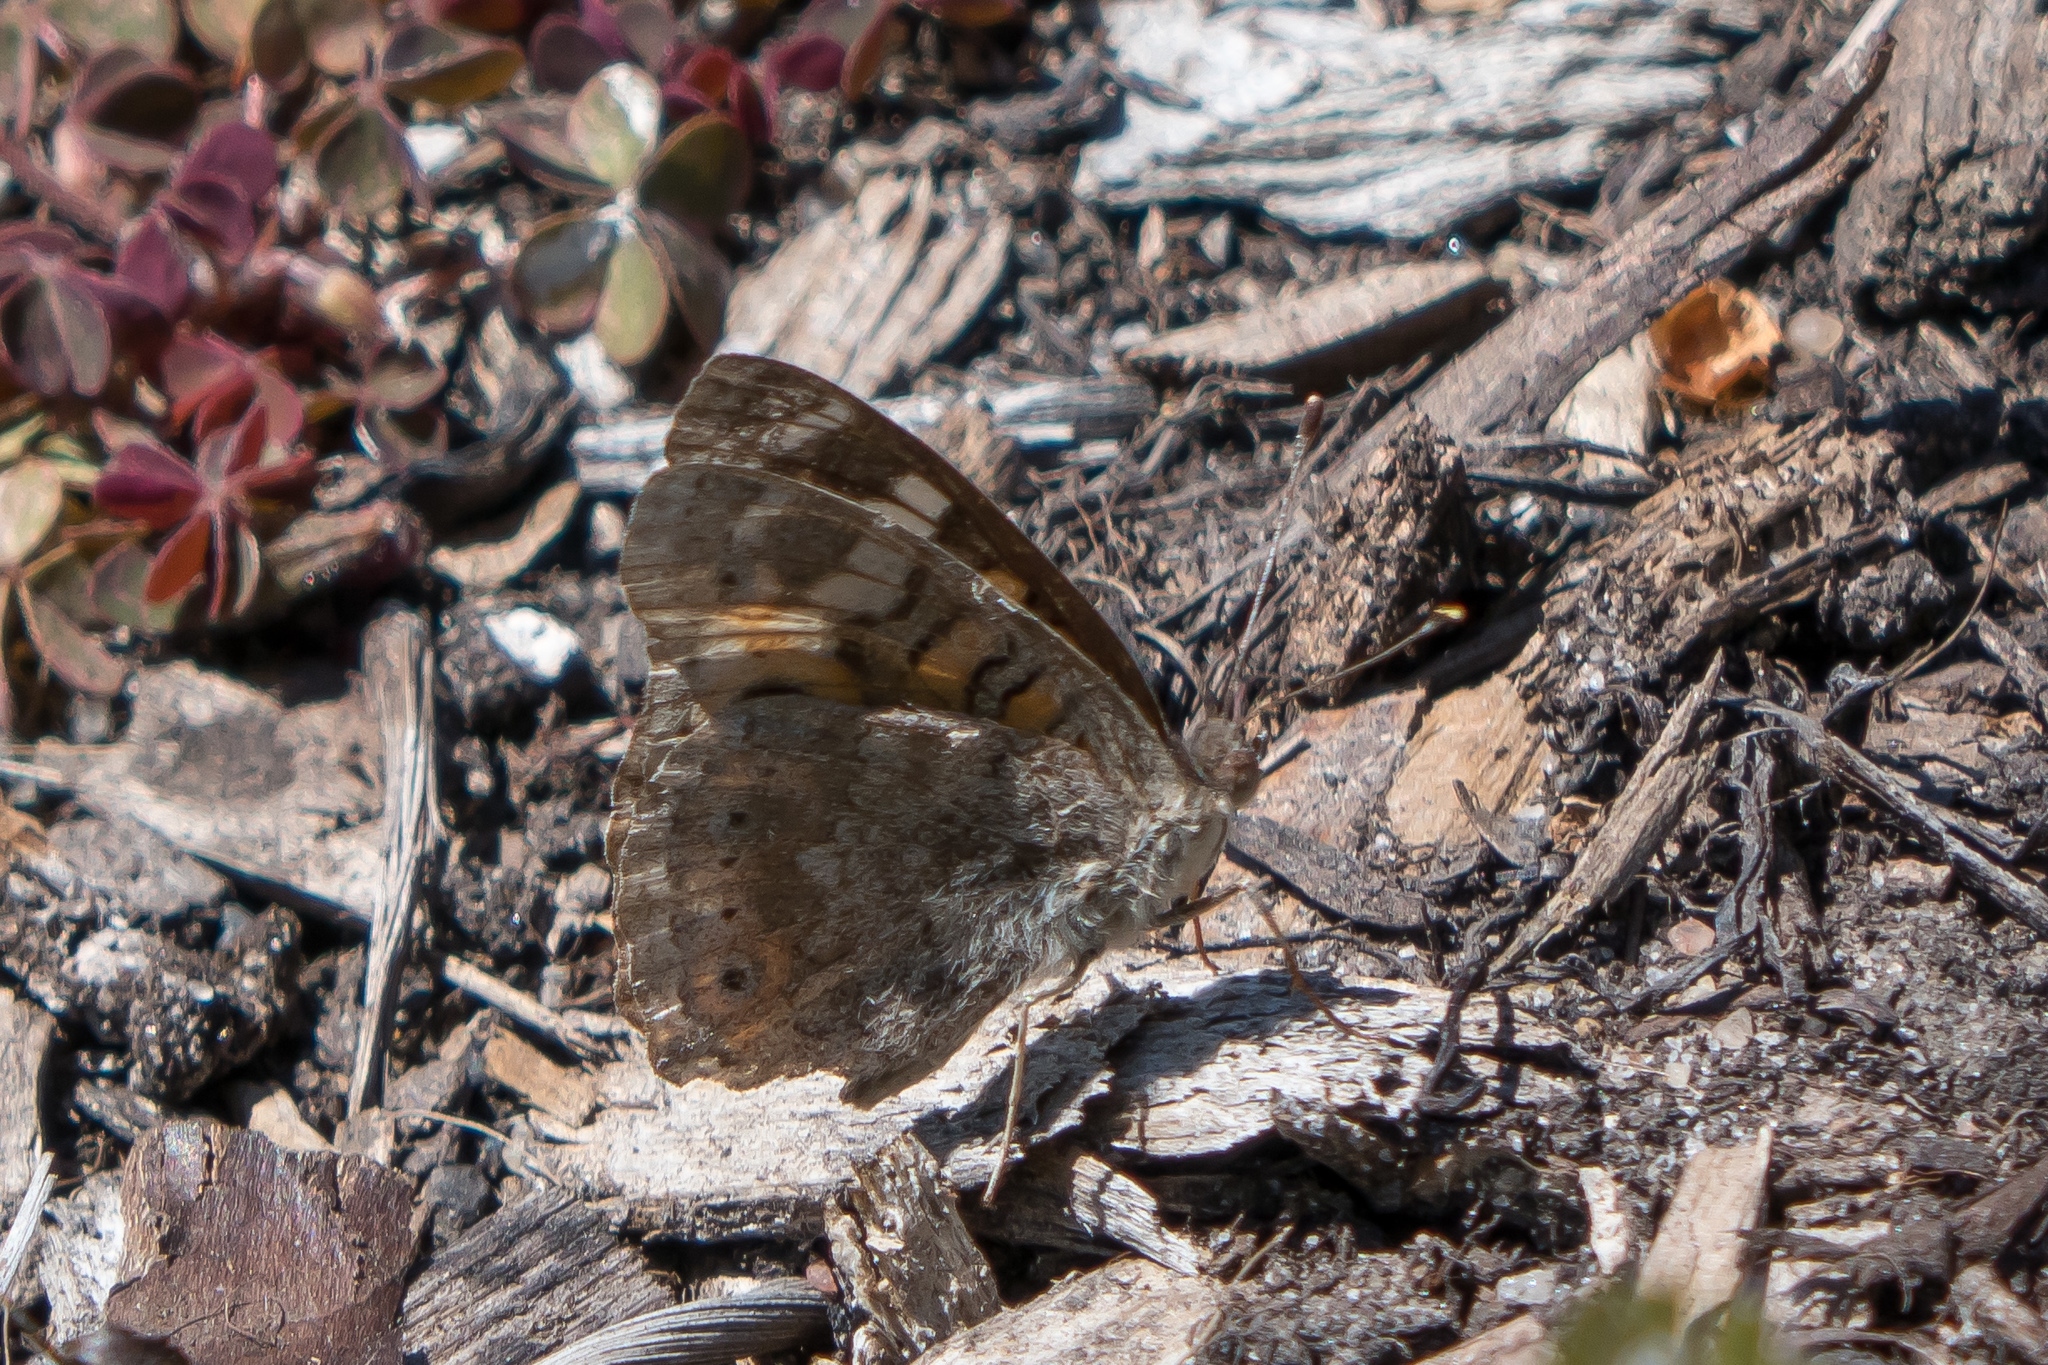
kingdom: Animalia
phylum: Arthropoda
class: Insecta
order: Lepidoptera
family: Nymphalidae
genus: Junonia
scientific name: Junonia villida
